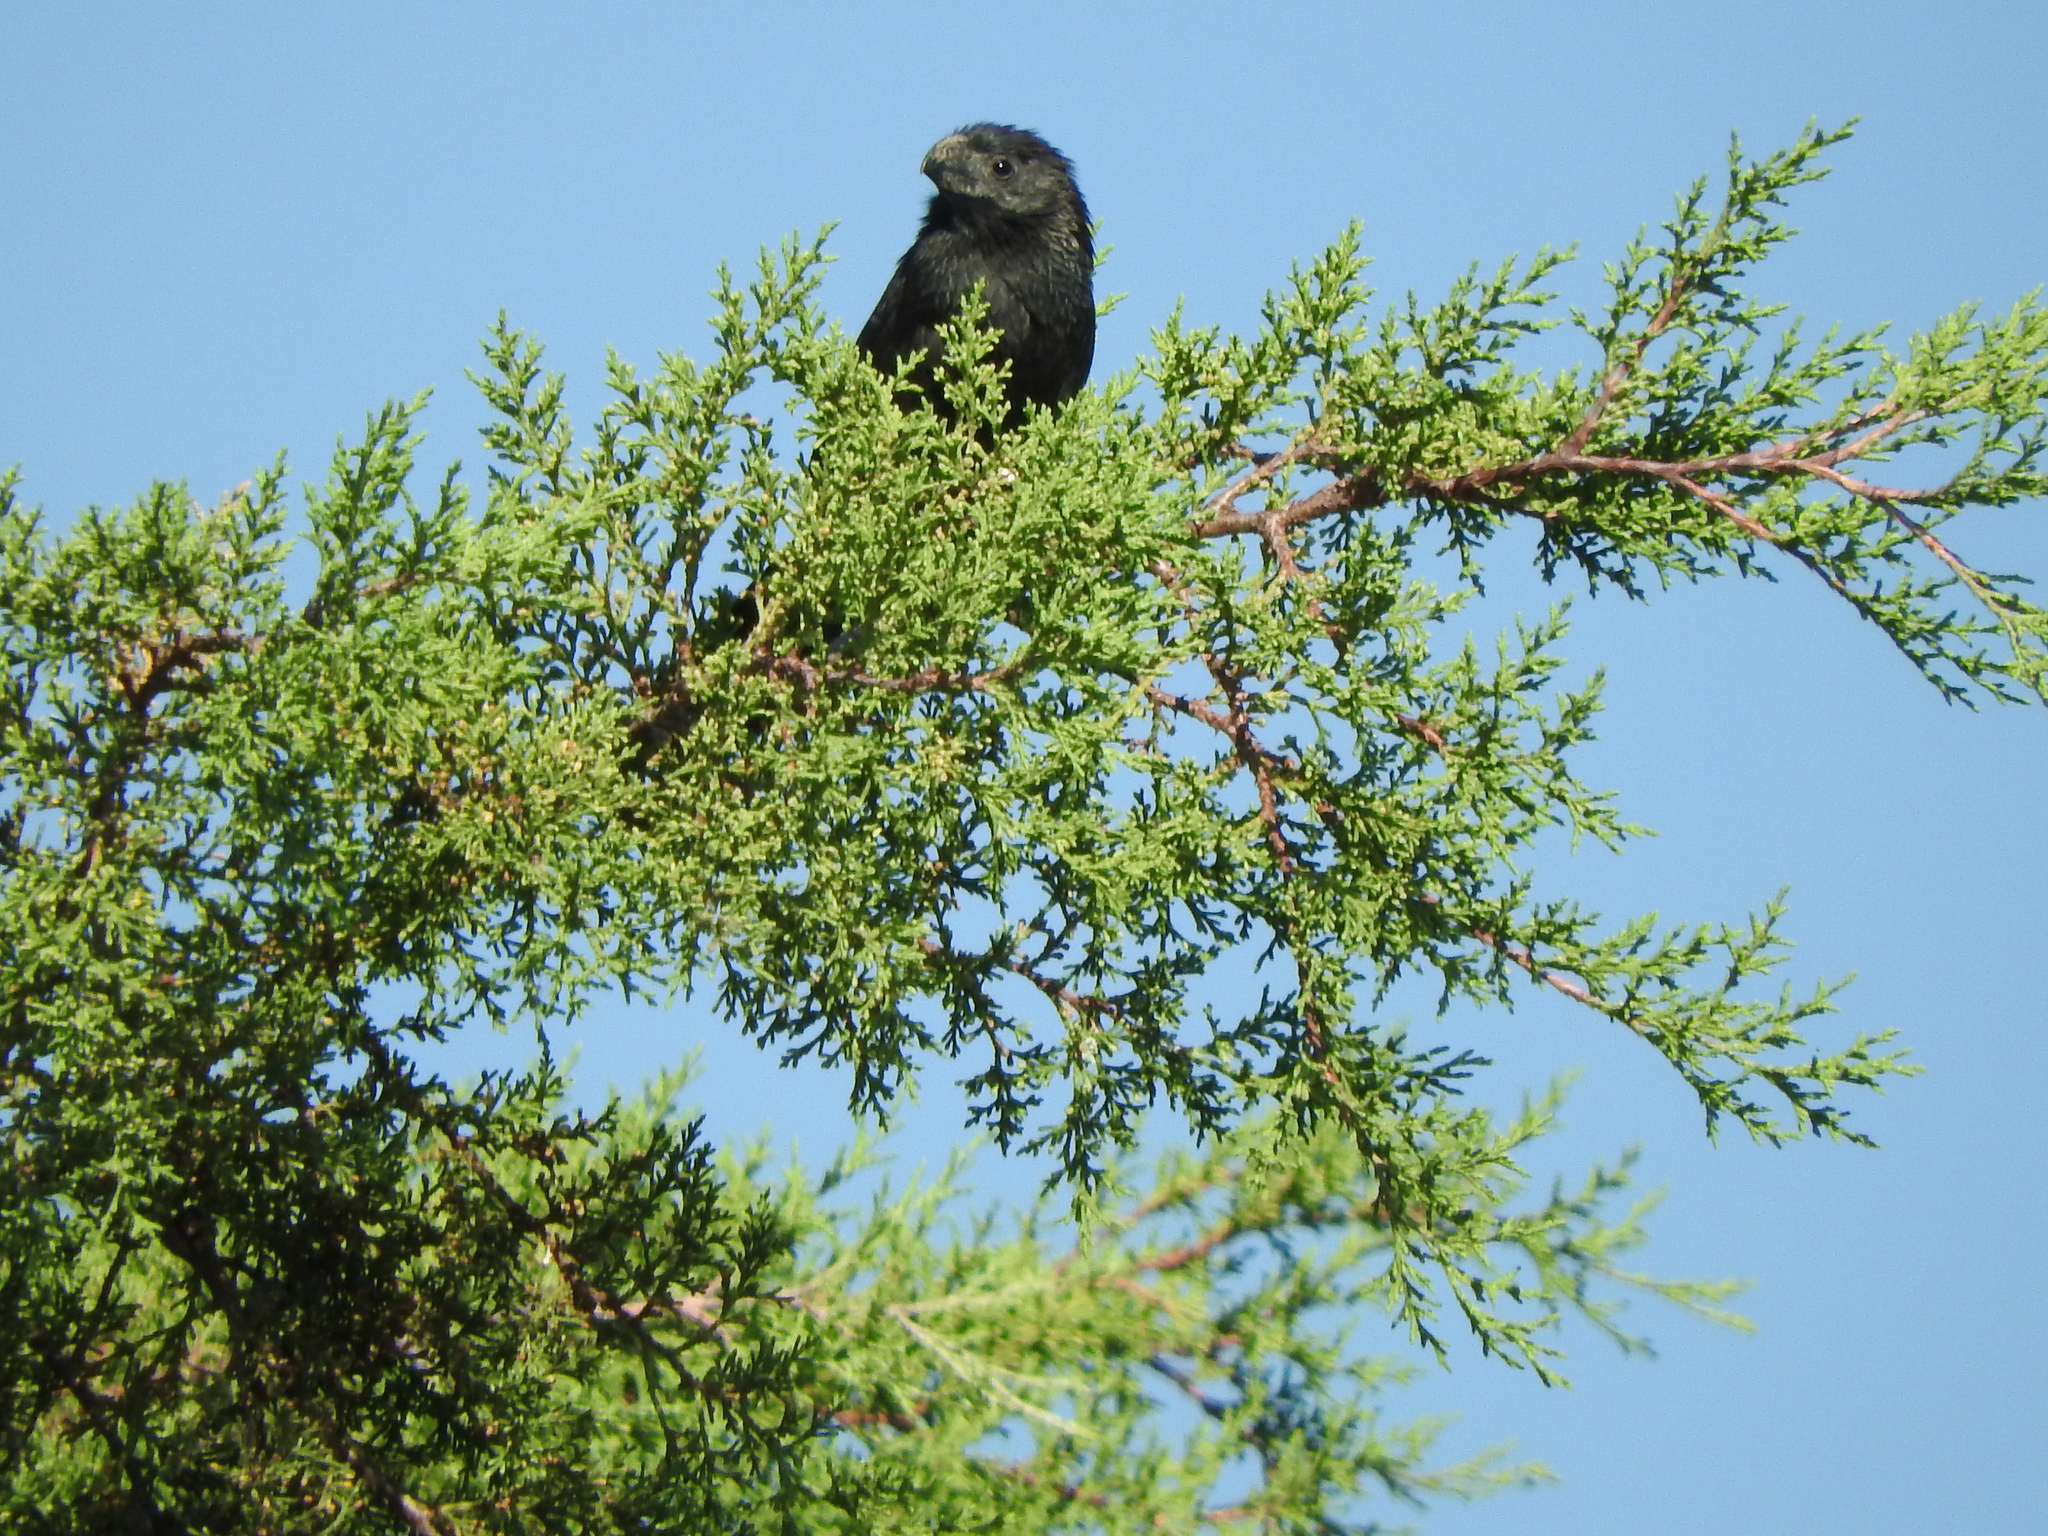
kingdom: Animalia
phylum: Chordata
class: Aves
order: Cuculiformes
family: Cuculidae
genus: Crotophaga
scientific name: Crotophaga sulcirostris
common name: Groove-billed ani
